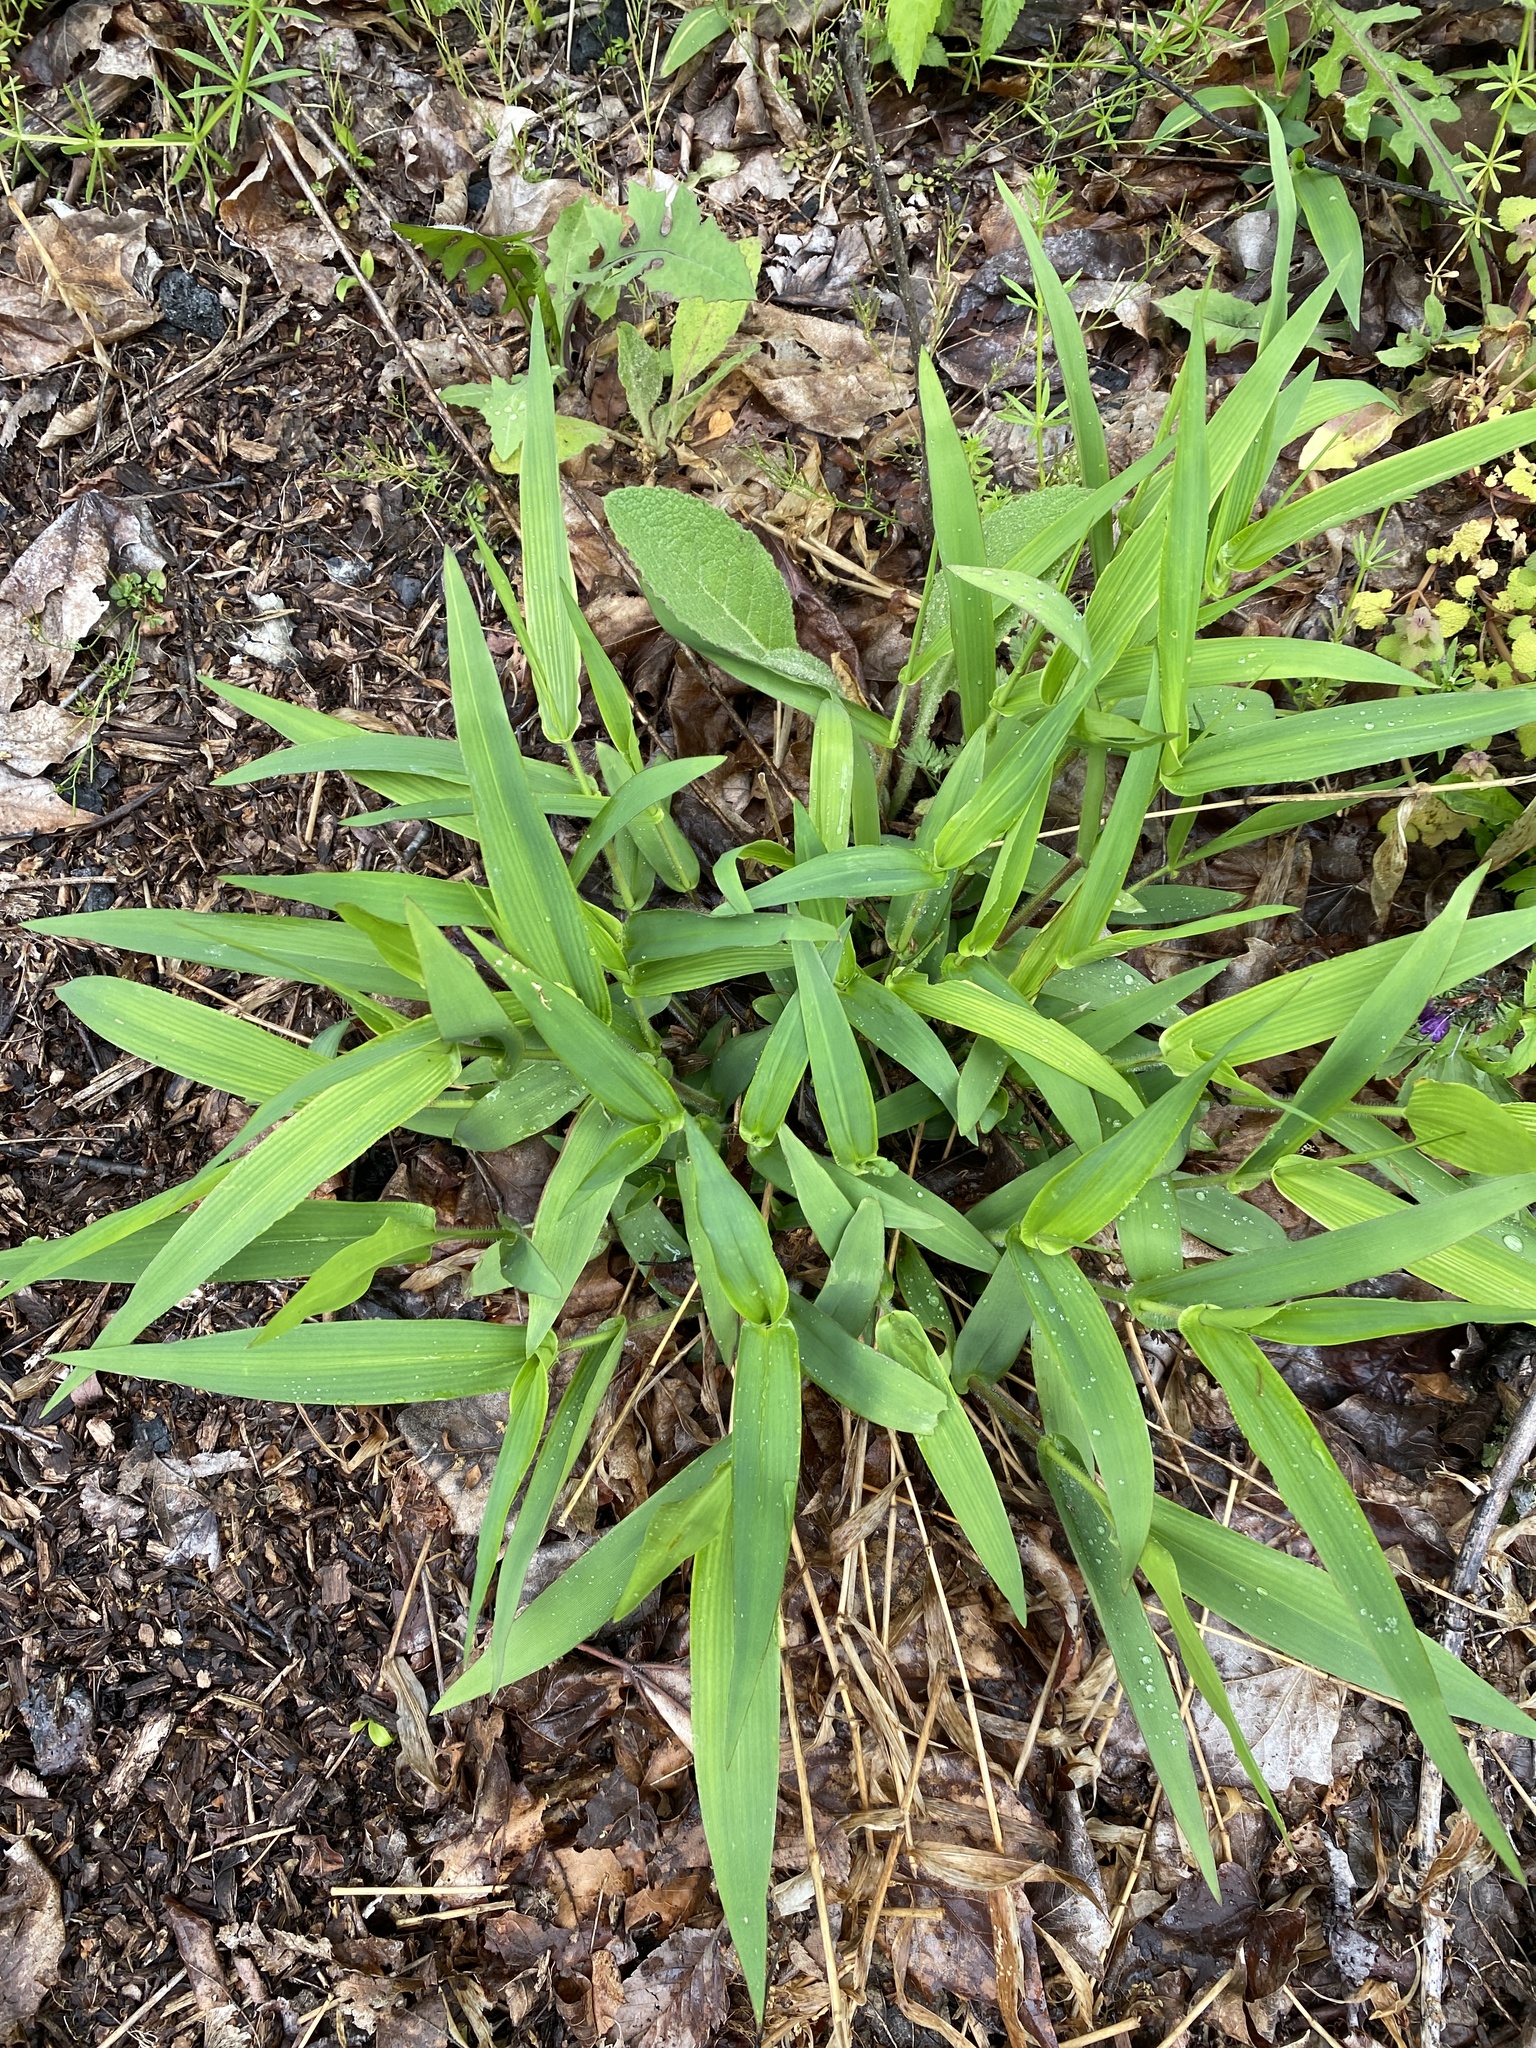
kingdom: Plantae
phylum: Tracheophyta
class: Liliopsida
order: Poales
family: Poaceae
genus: Dichanthelium
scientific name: Dichanthelium clandestinum
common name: Deer-tongue grass
